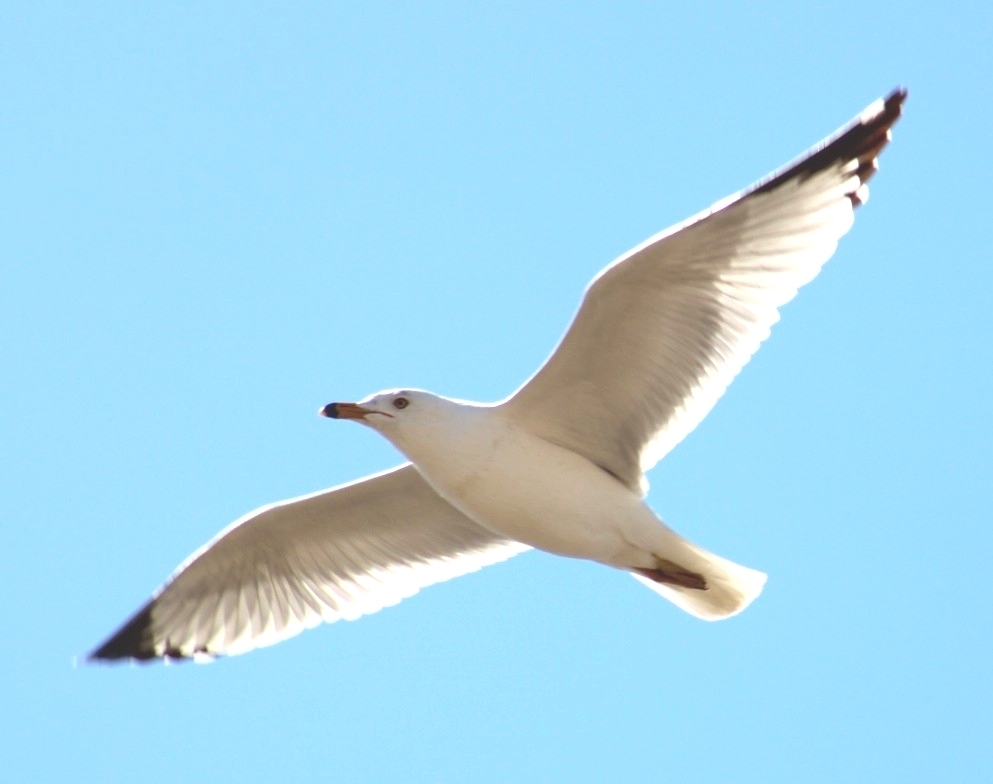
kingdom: Animalia
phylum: Chordata
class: Aves
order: Charadriiformes
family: Laridae
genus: Larus
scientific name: Larus delawarensis
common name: Ring-billed gull
